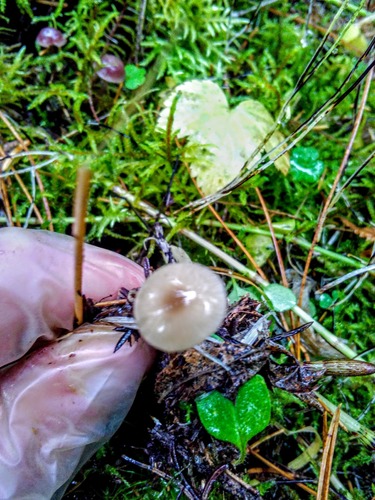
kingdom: Fungi
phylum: Basidiomycota
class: Agaricomycetes
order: Agaricales
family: Mycenaceae
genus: Roridomyces
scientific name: Roridomyces roridus
